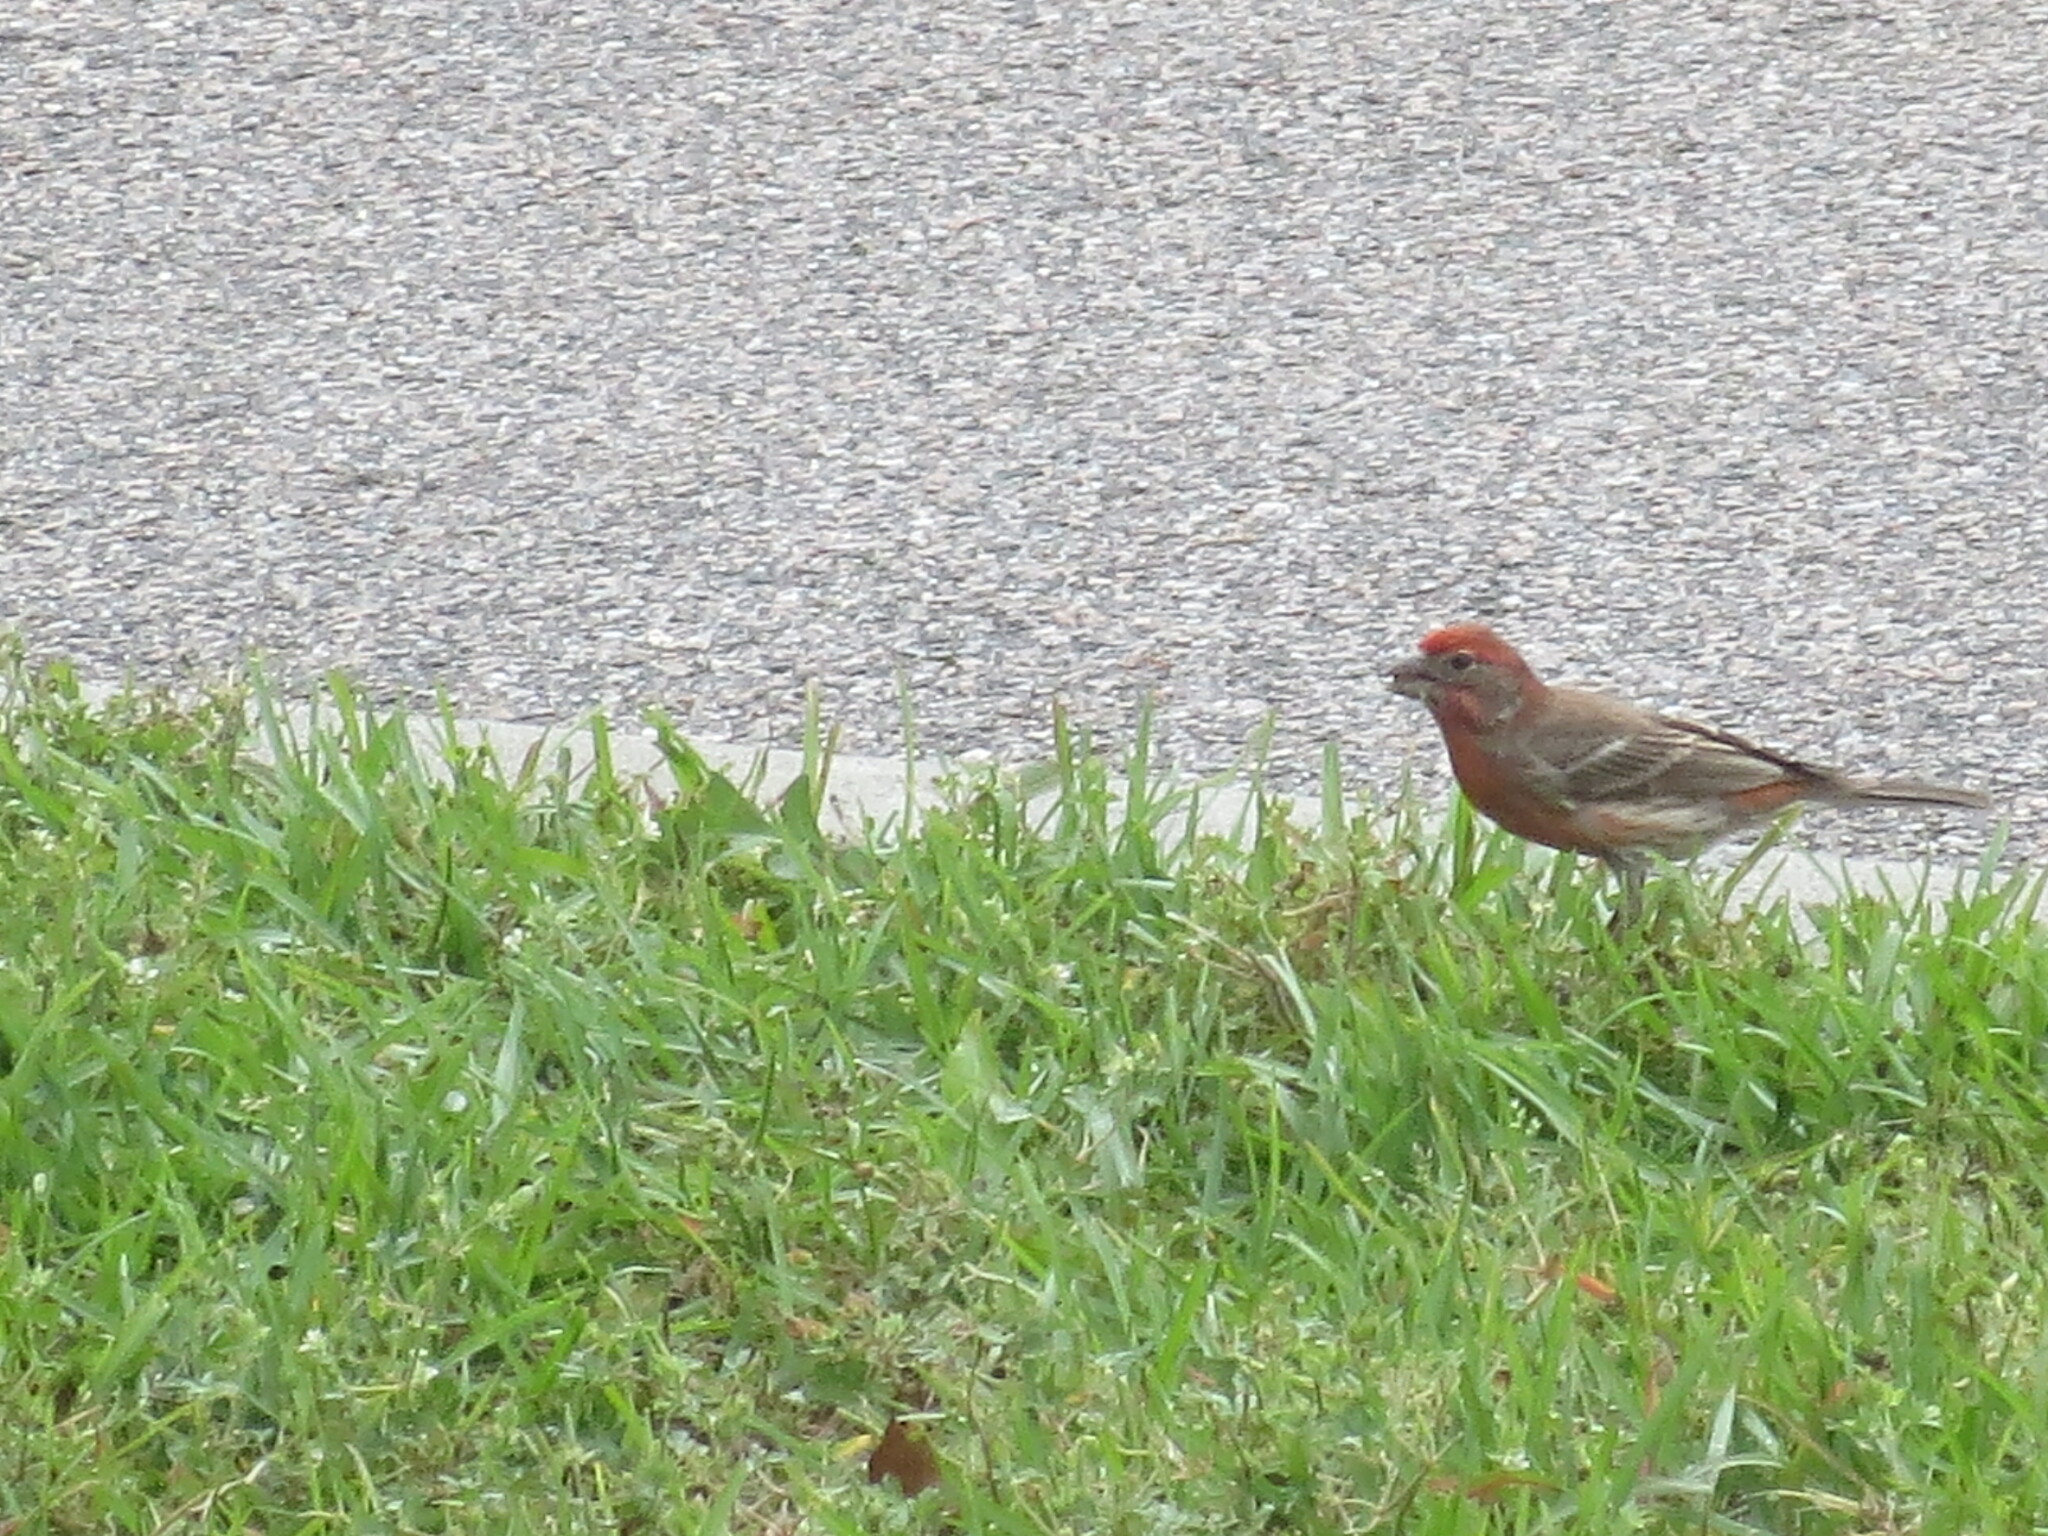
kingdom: Animalia
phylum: Chordata
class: Aves
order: Passeriformes
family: Fringillidae
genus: Haemorhous
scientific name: Haemorhous mexicanus
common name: House finch
